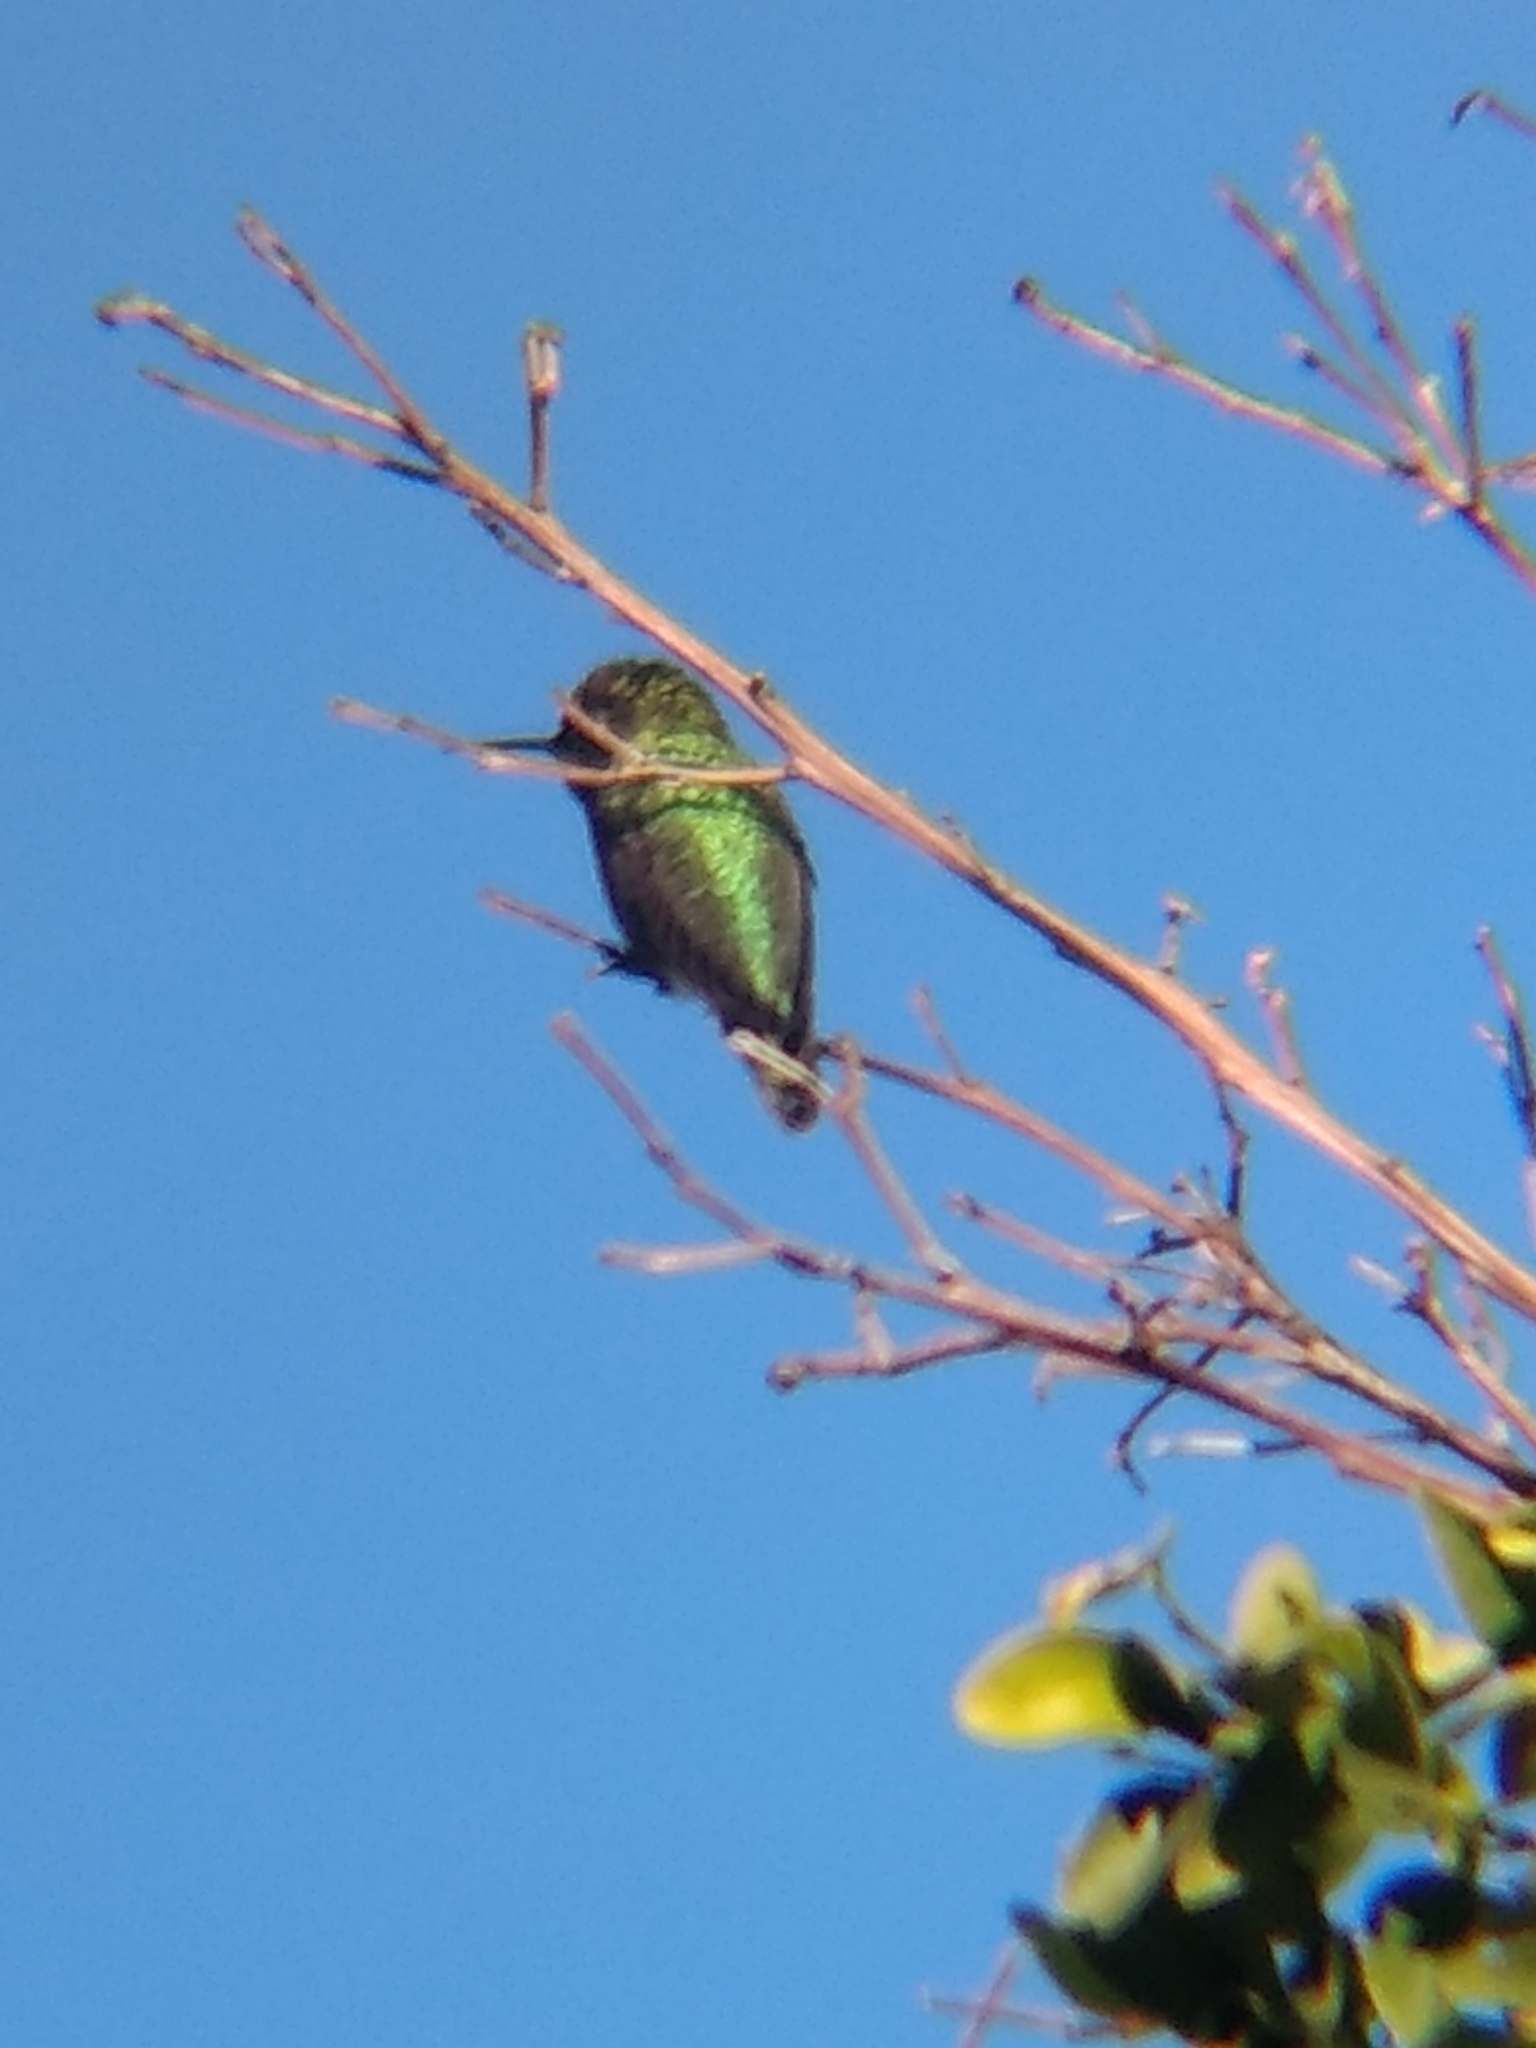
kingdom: Animalia
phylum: Chordata
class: Aves
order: Apodiformes
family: Trochilidae
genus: Calypte
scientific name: Calypte anna
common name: Anna's hummingbird
